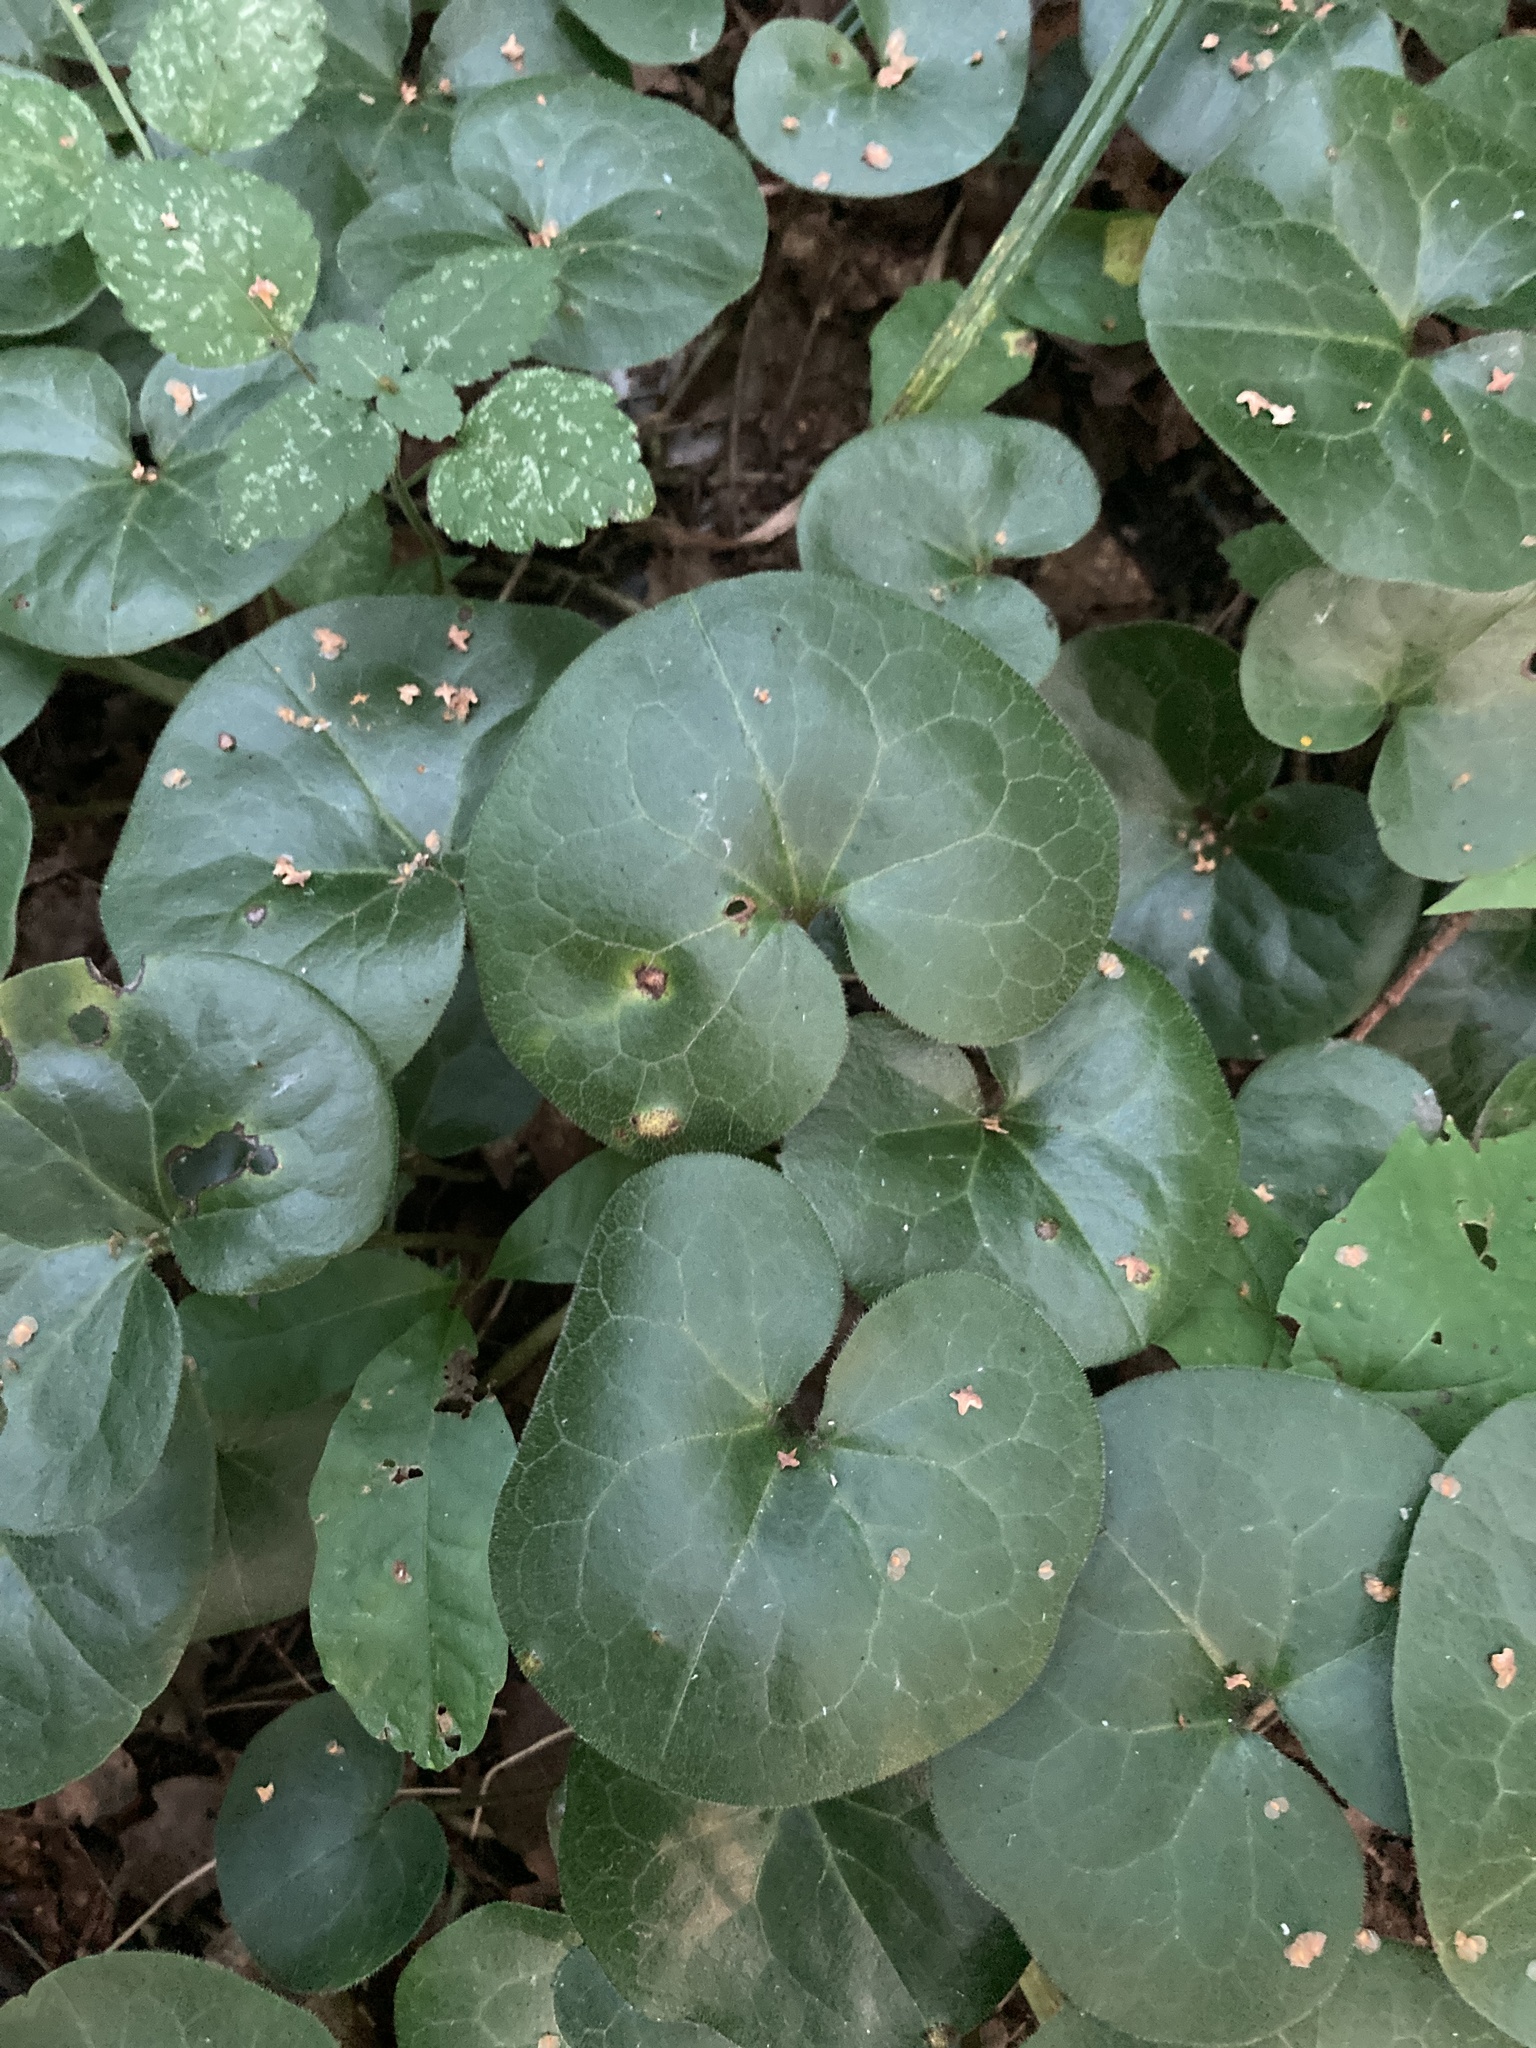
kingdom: Plantae
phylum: Tracheophyta
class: Magnoliopsida
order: Piperales
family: Aristolochiaceae
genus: Asarum
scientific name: Asarum europaeum
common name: Asarabacca
